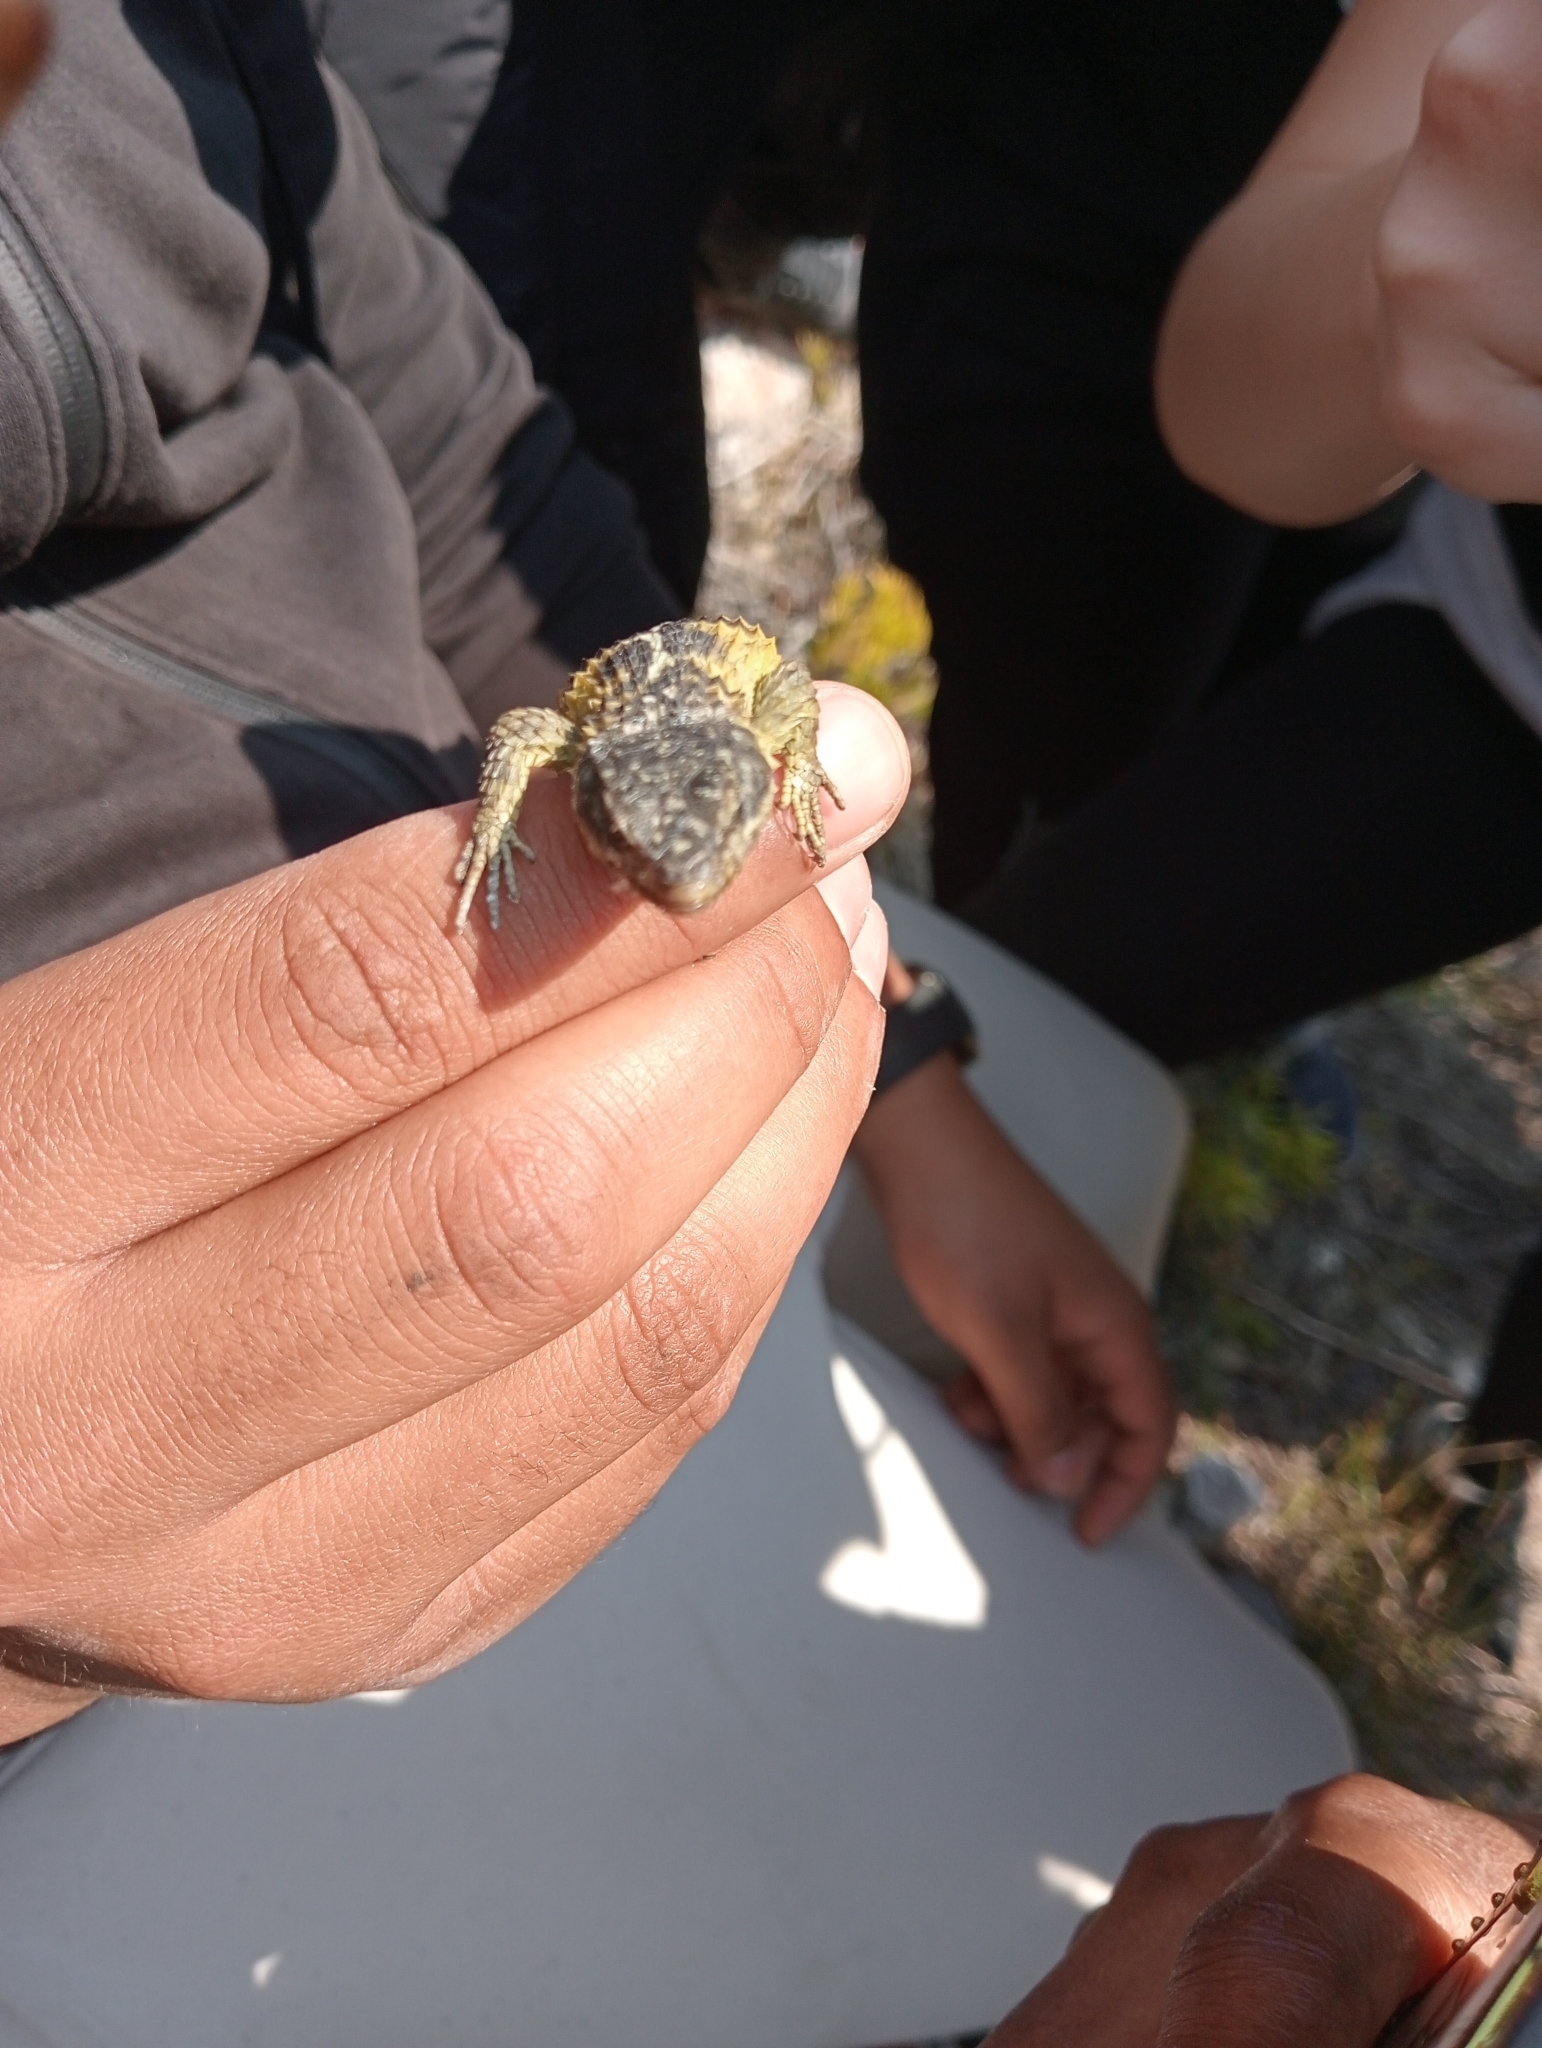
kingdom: Animalia
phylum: Chordata
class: Squamata
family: Cordylidae
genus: Cordylus
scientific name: Cordylus cordylus
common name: Cape girdled lizard
